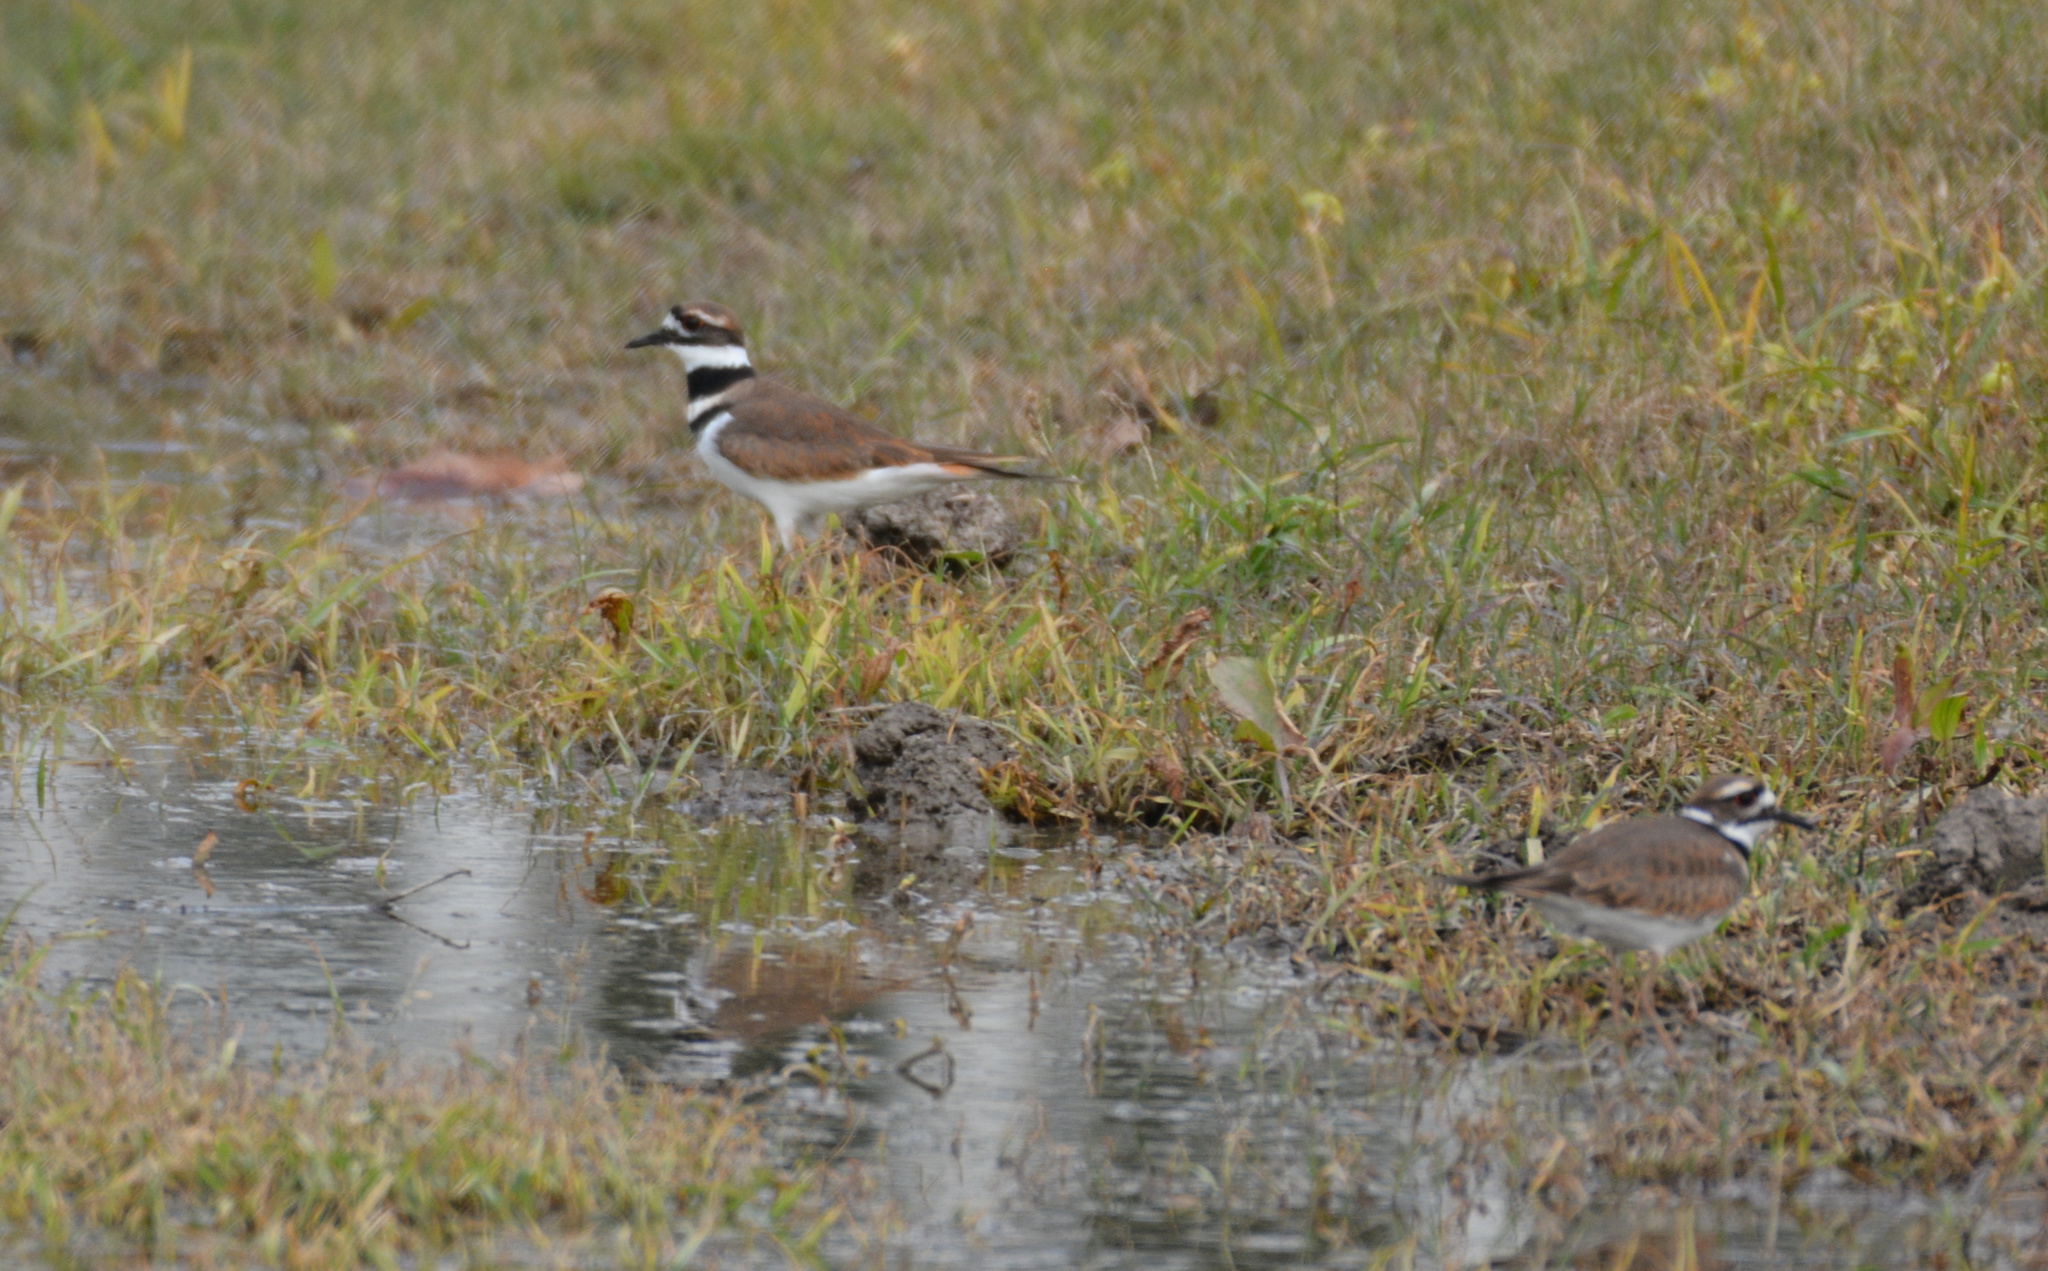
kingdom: Animalia
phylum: Chordata
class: Aves
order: Charadriiformes
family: Charadriidae
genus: Charadrius
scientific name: Charadrius vociferus
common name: Killdeer
